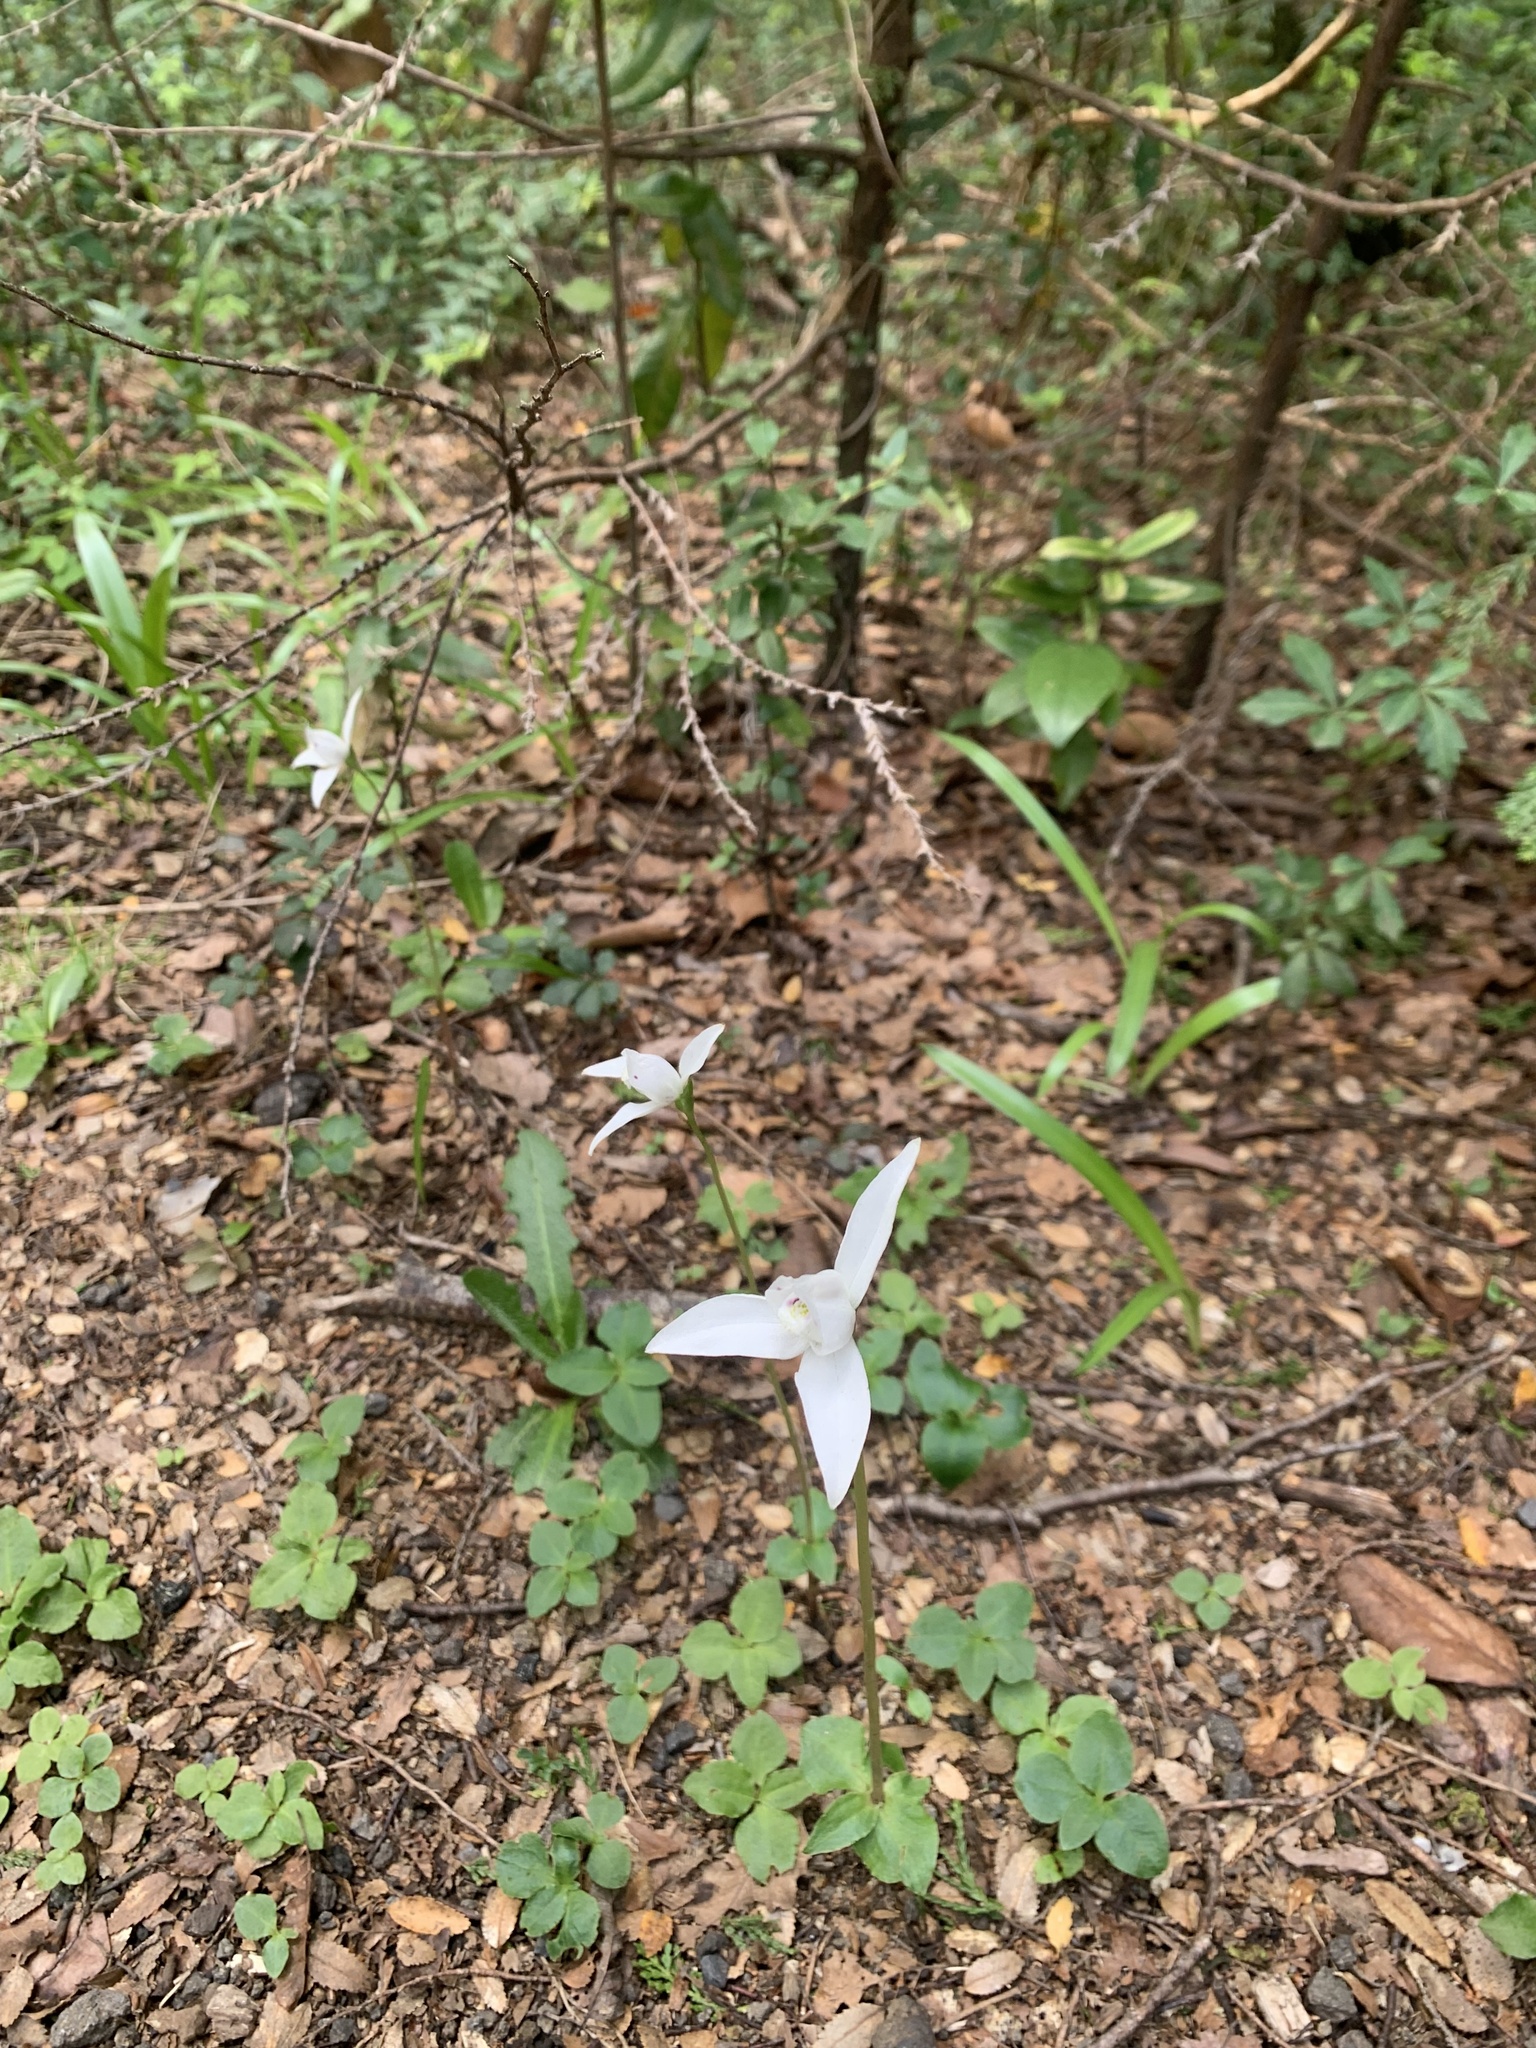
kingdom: Plantae
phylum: Tracheophyta
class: Liliopsida
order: Asparagales
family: Orchidaceae
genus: Codonorchis
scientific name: Codonorchis lessonii
